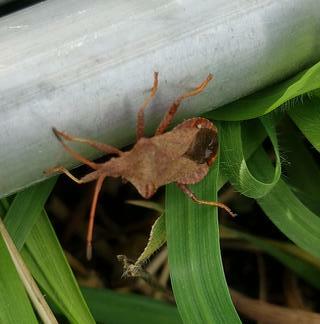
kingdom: Animalia
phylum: Arthropoda
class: Insecta
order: Hemiptera
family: Coreidae
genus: Coreus
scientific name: Coreus marginatus
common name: Dock bug
